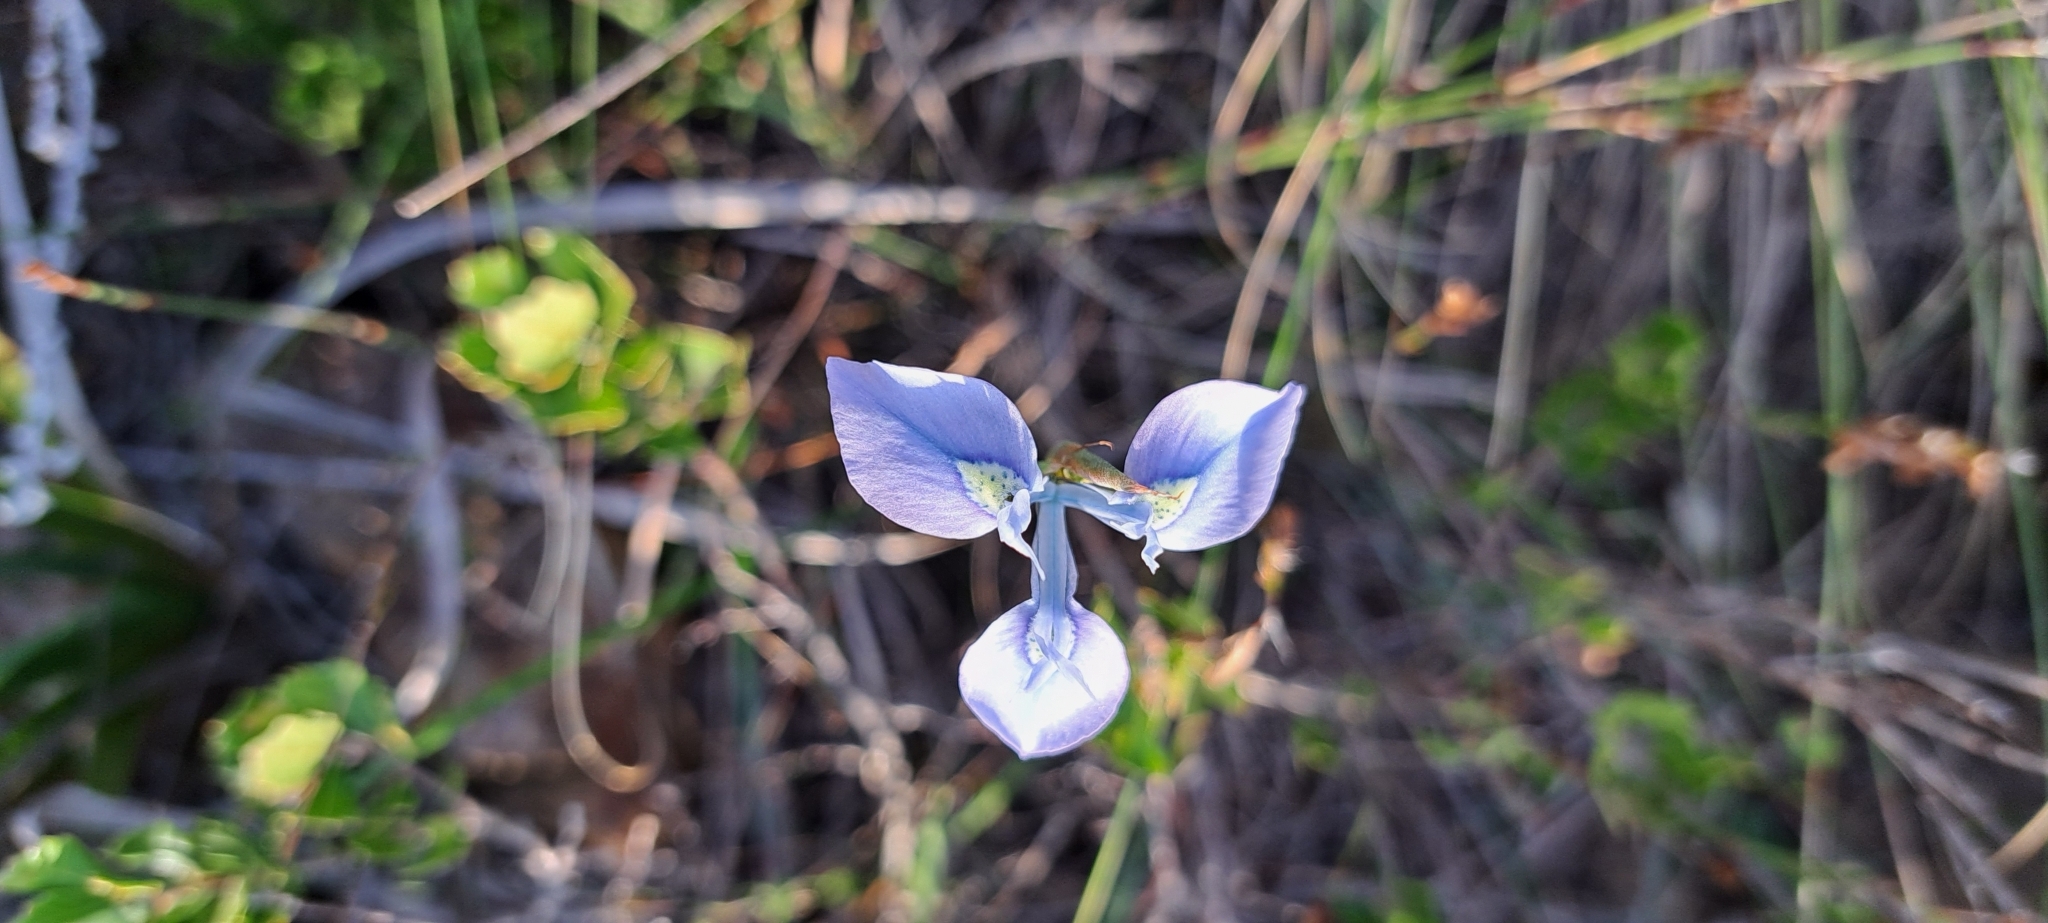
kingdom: Plantae
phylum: Tracheophyta
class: Liliopsida
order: Asparagales
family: Iridaceae
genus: Moraea
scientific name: Moraea tripetala
